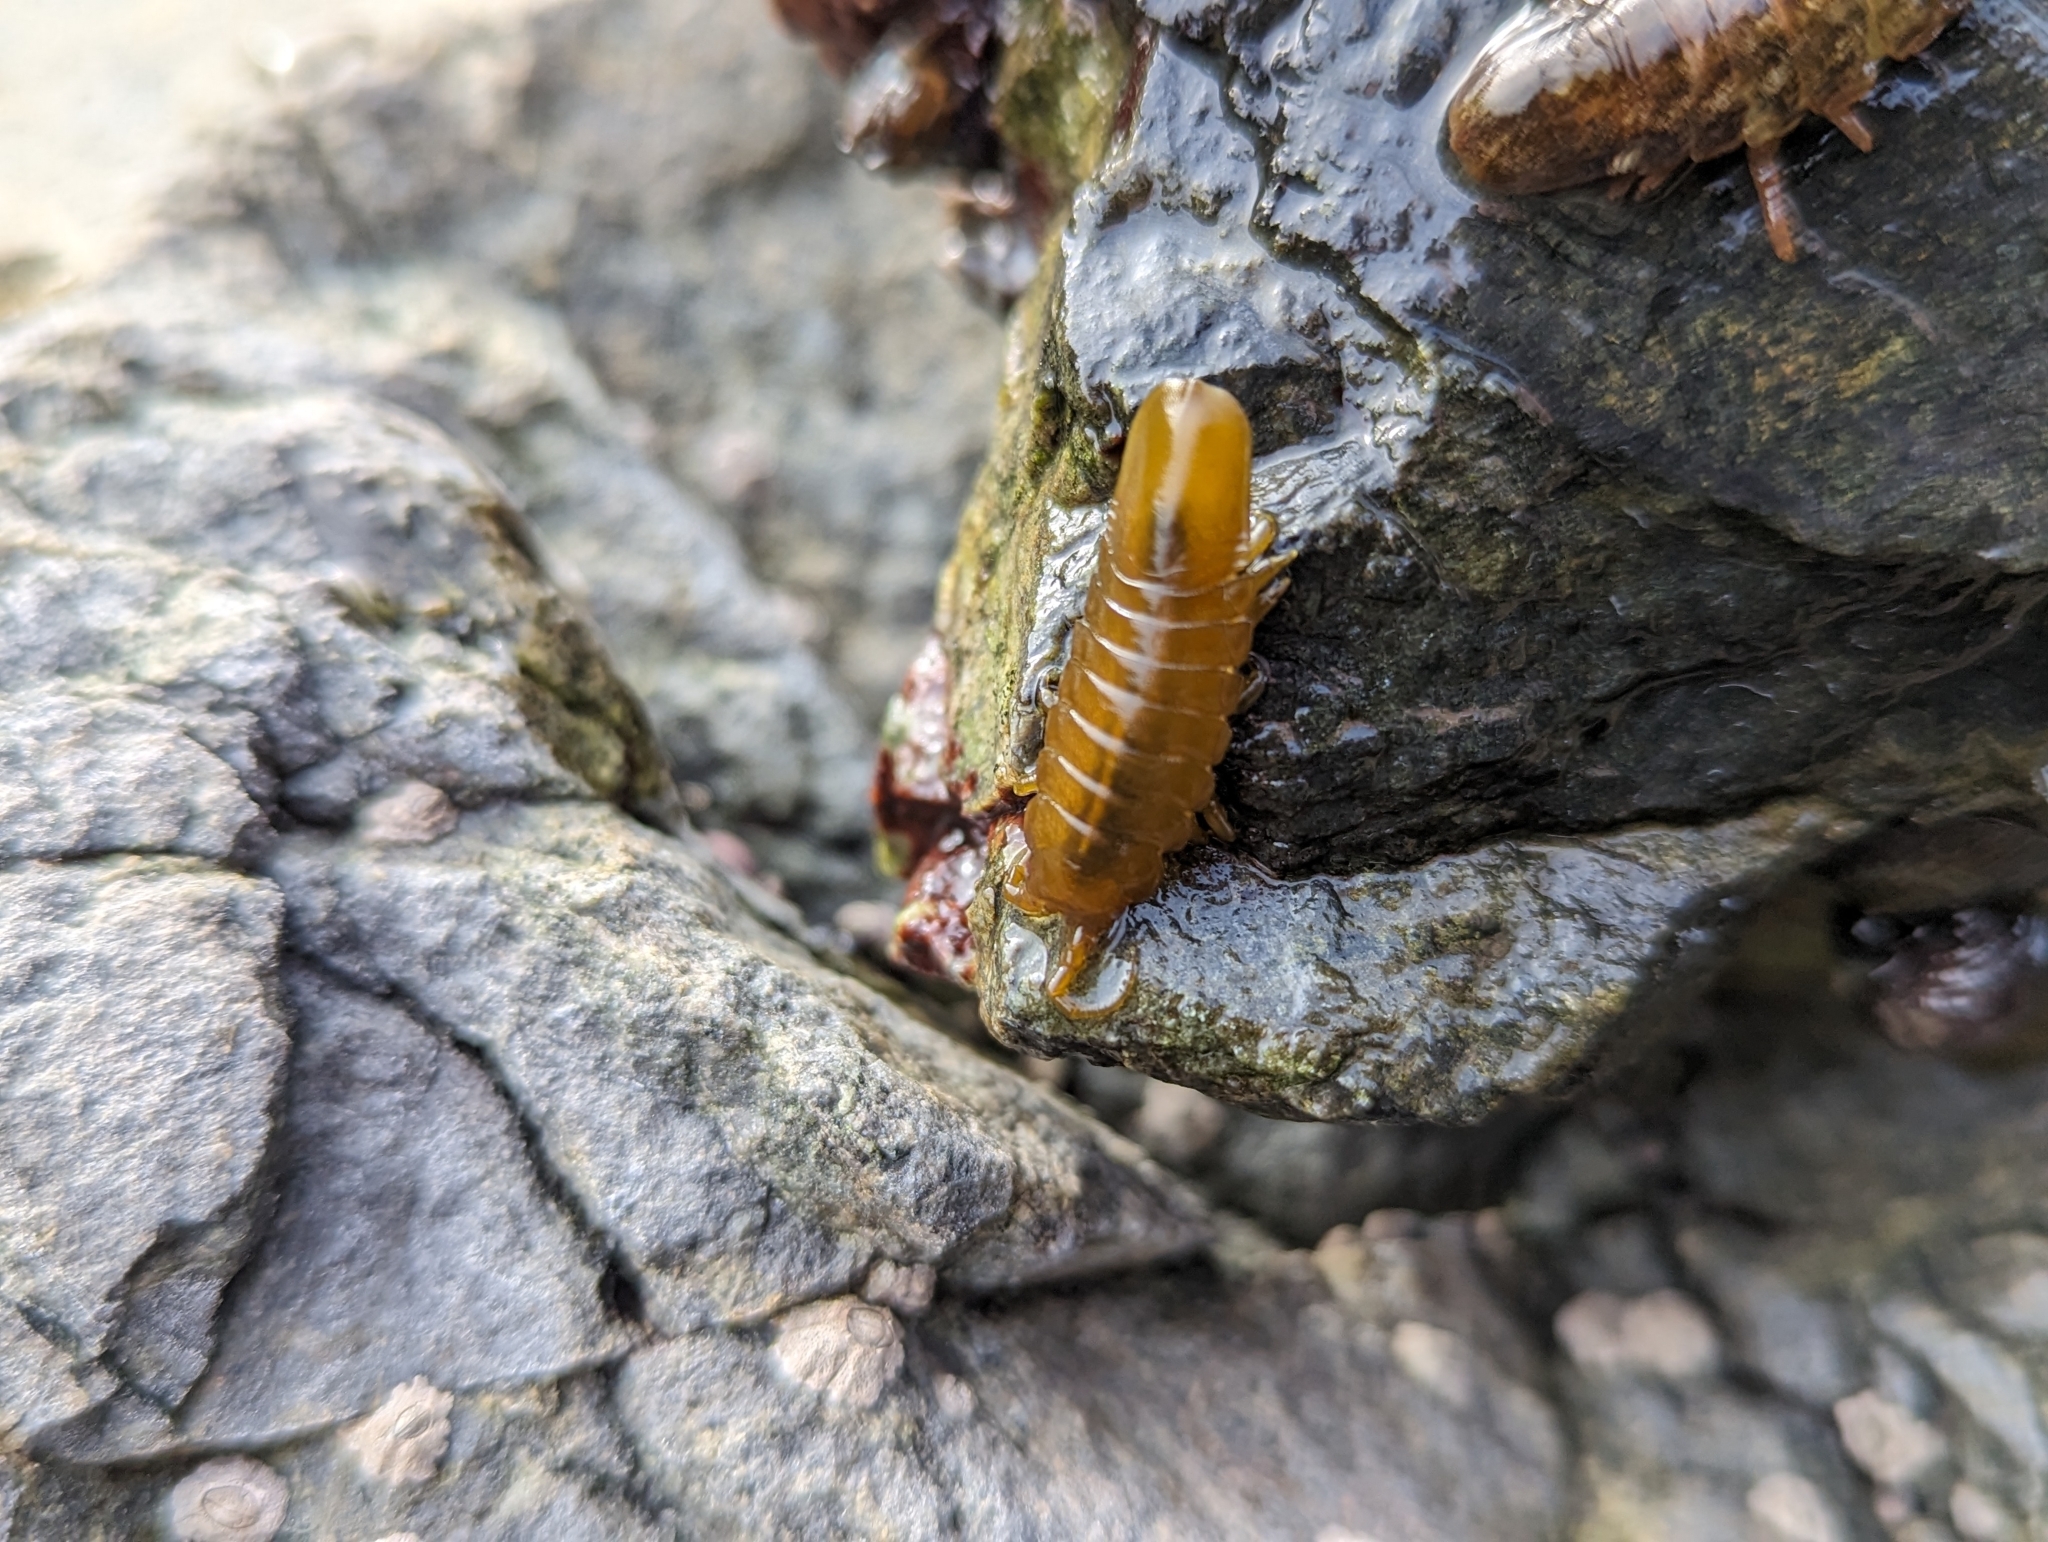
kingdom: Animalia
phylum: Arthropoda
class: Malacostraca
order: Isopoda
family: Idoteidae
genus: Pentidotea
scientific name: Pentidotea wosnesenskii
